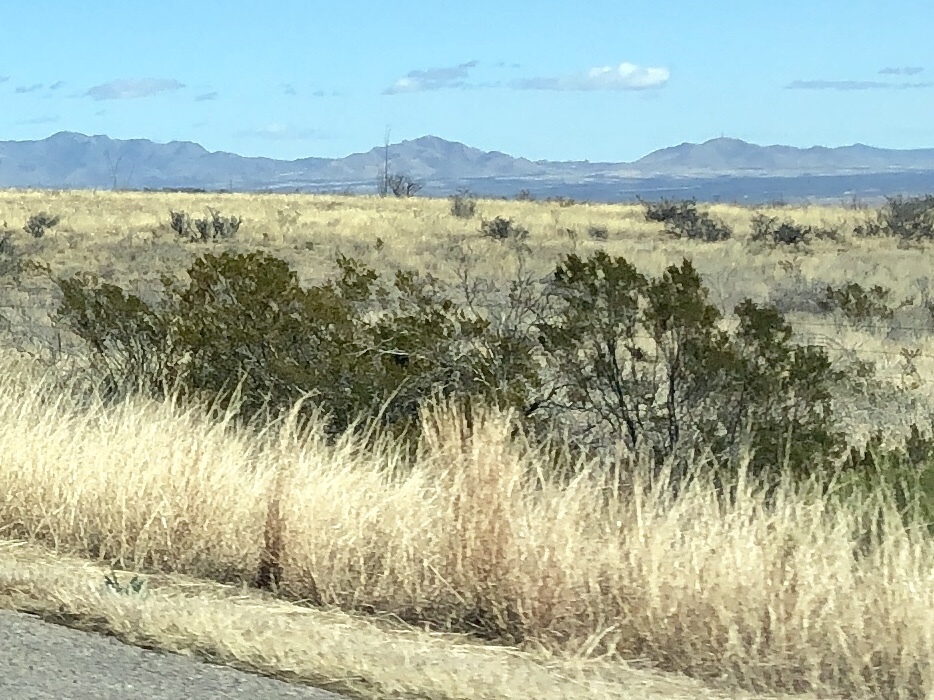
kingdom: Plantae
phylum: Tracheophyta
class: Magnoliopsida
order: Zygophyllales
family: Zygophyllaceae
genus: Larrea
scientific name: Larrea tridentata
